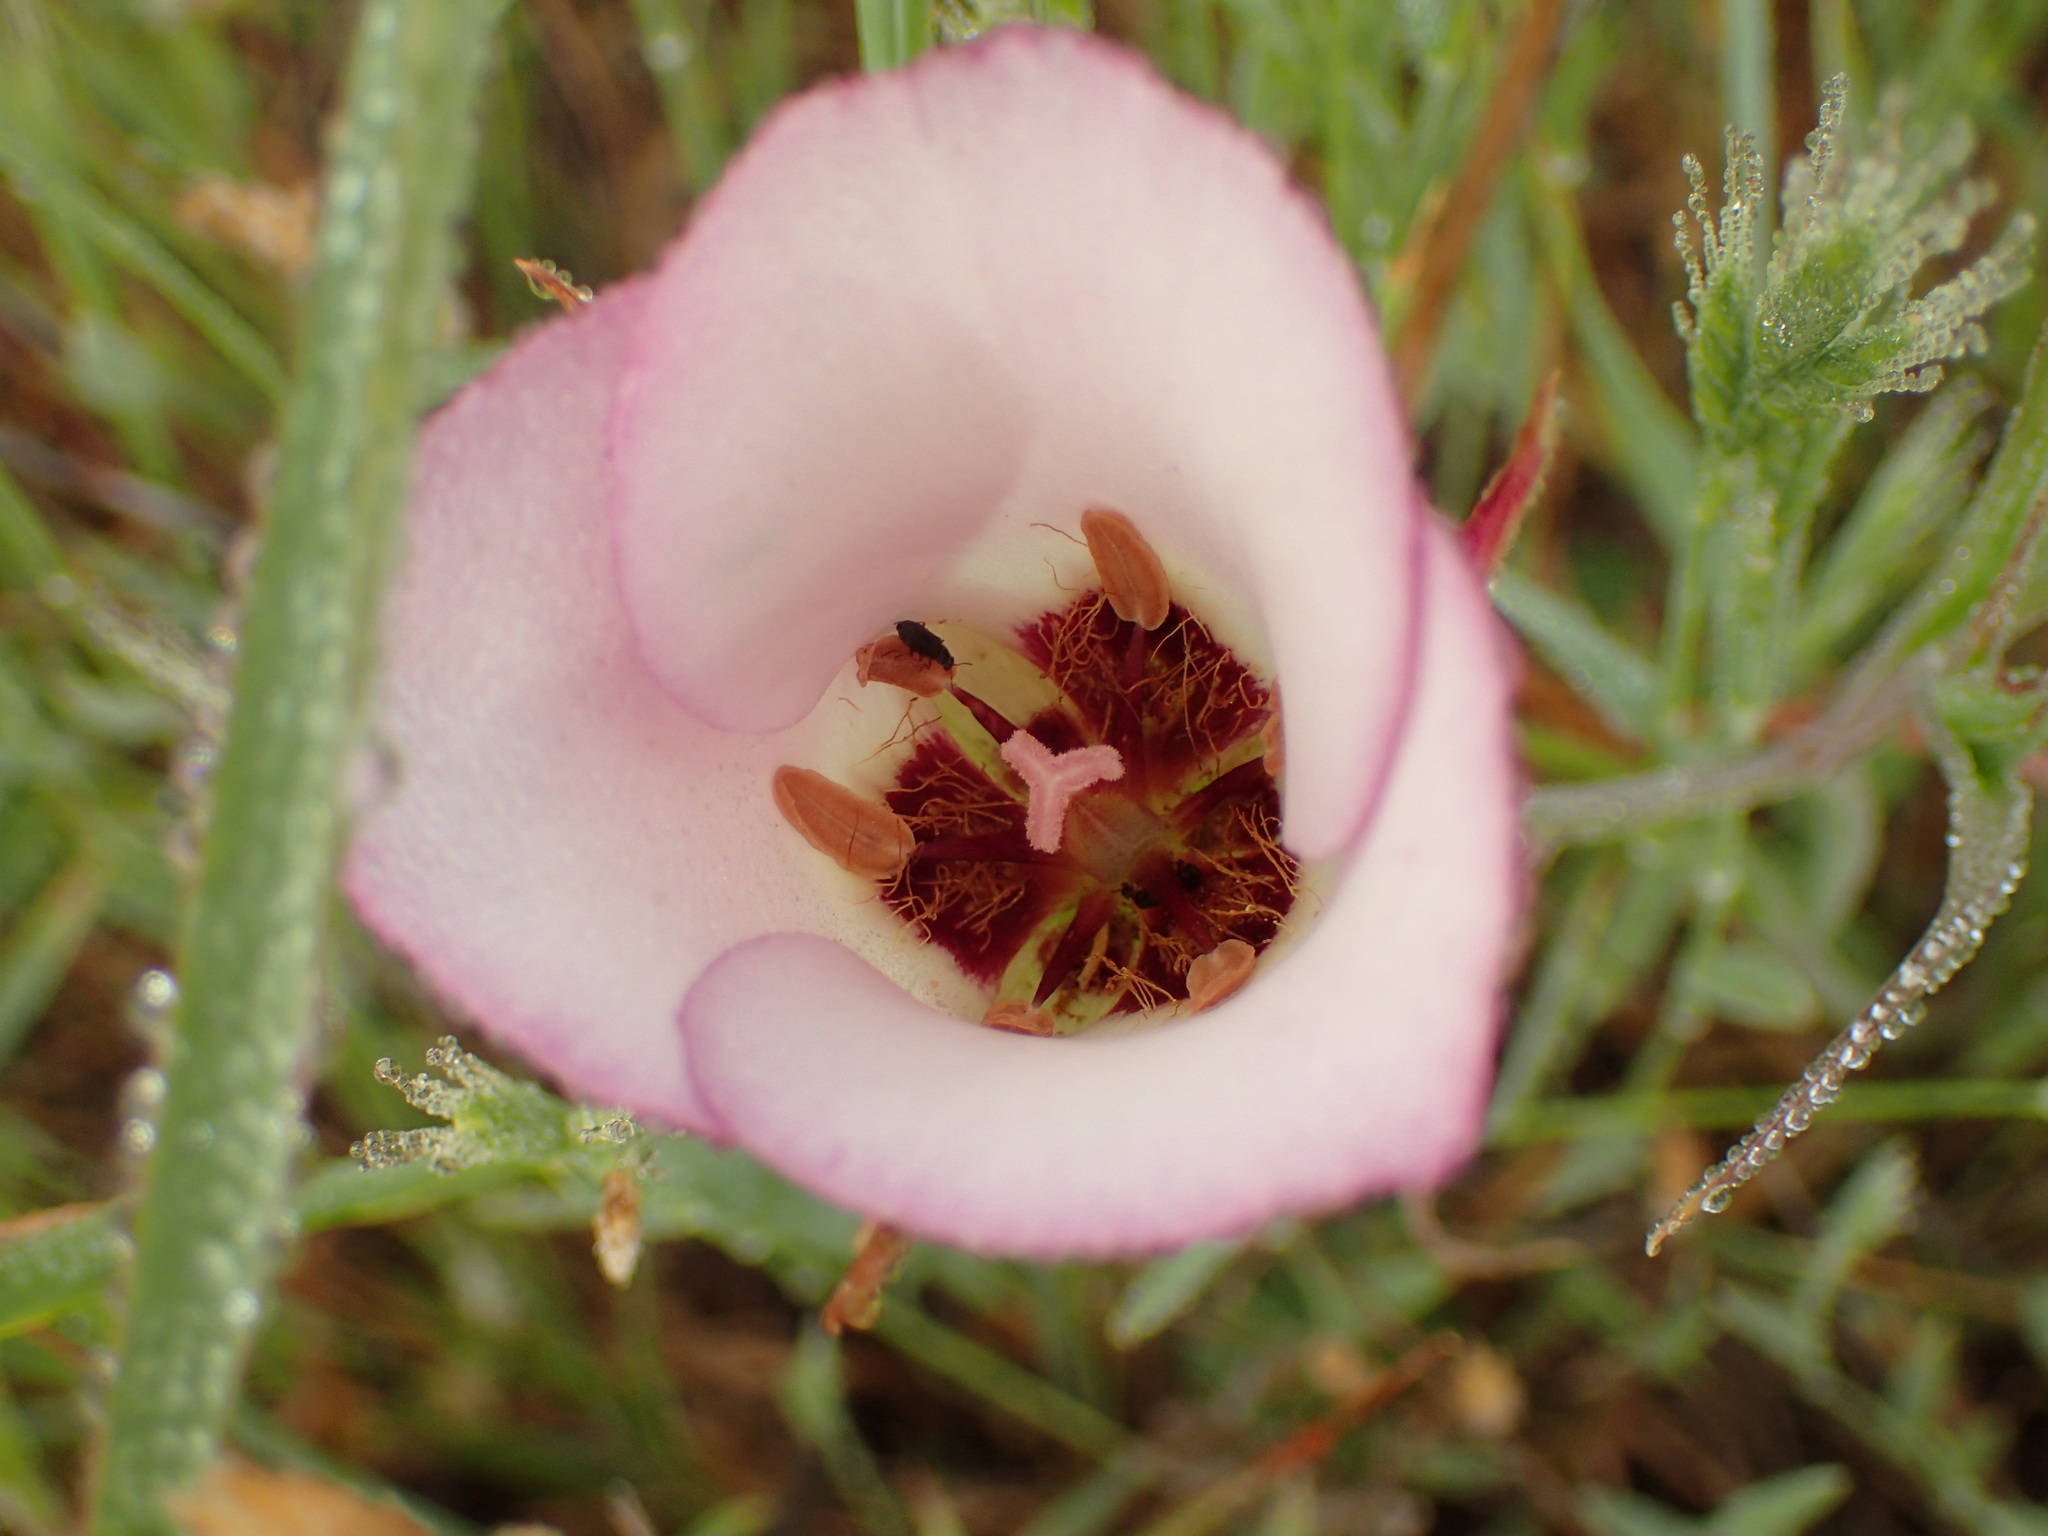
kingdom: Plantae
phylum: Tracheophyta
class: Liliopsida
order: Liliales
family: Liliaceae
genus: Calochortus
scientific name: Calochortus catalinae
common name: Catalina mariposa-lily
